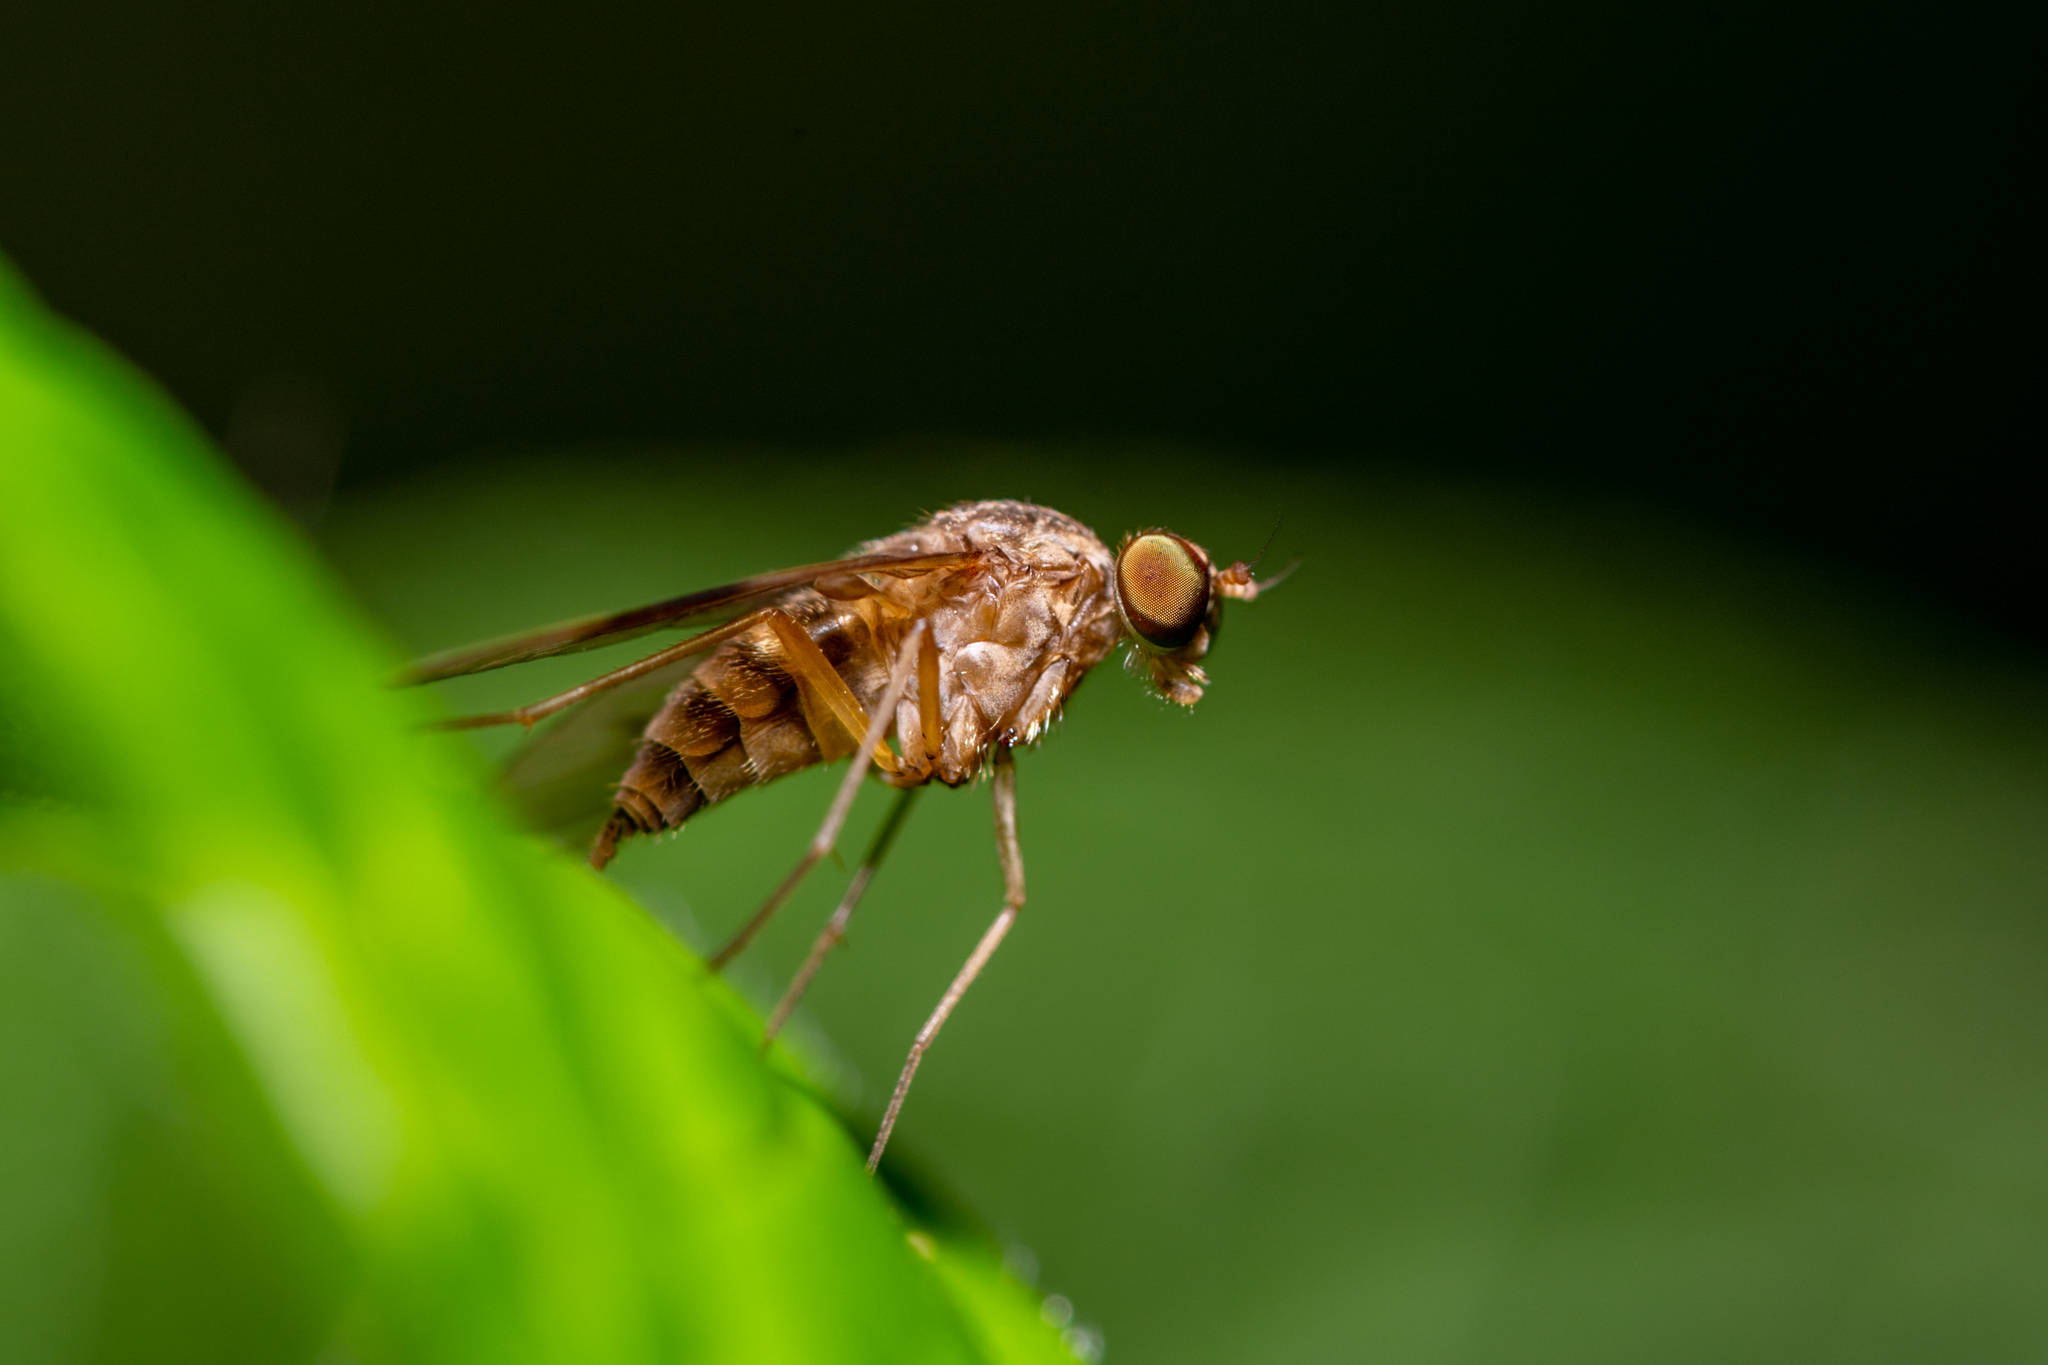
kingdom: Animalia
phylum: Arthropoda
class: Insecta
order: Diptera
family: Rhagionidae
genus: Chrysopilus
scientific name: Chrysopilus quadratus
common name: Quadrate snipe fly
